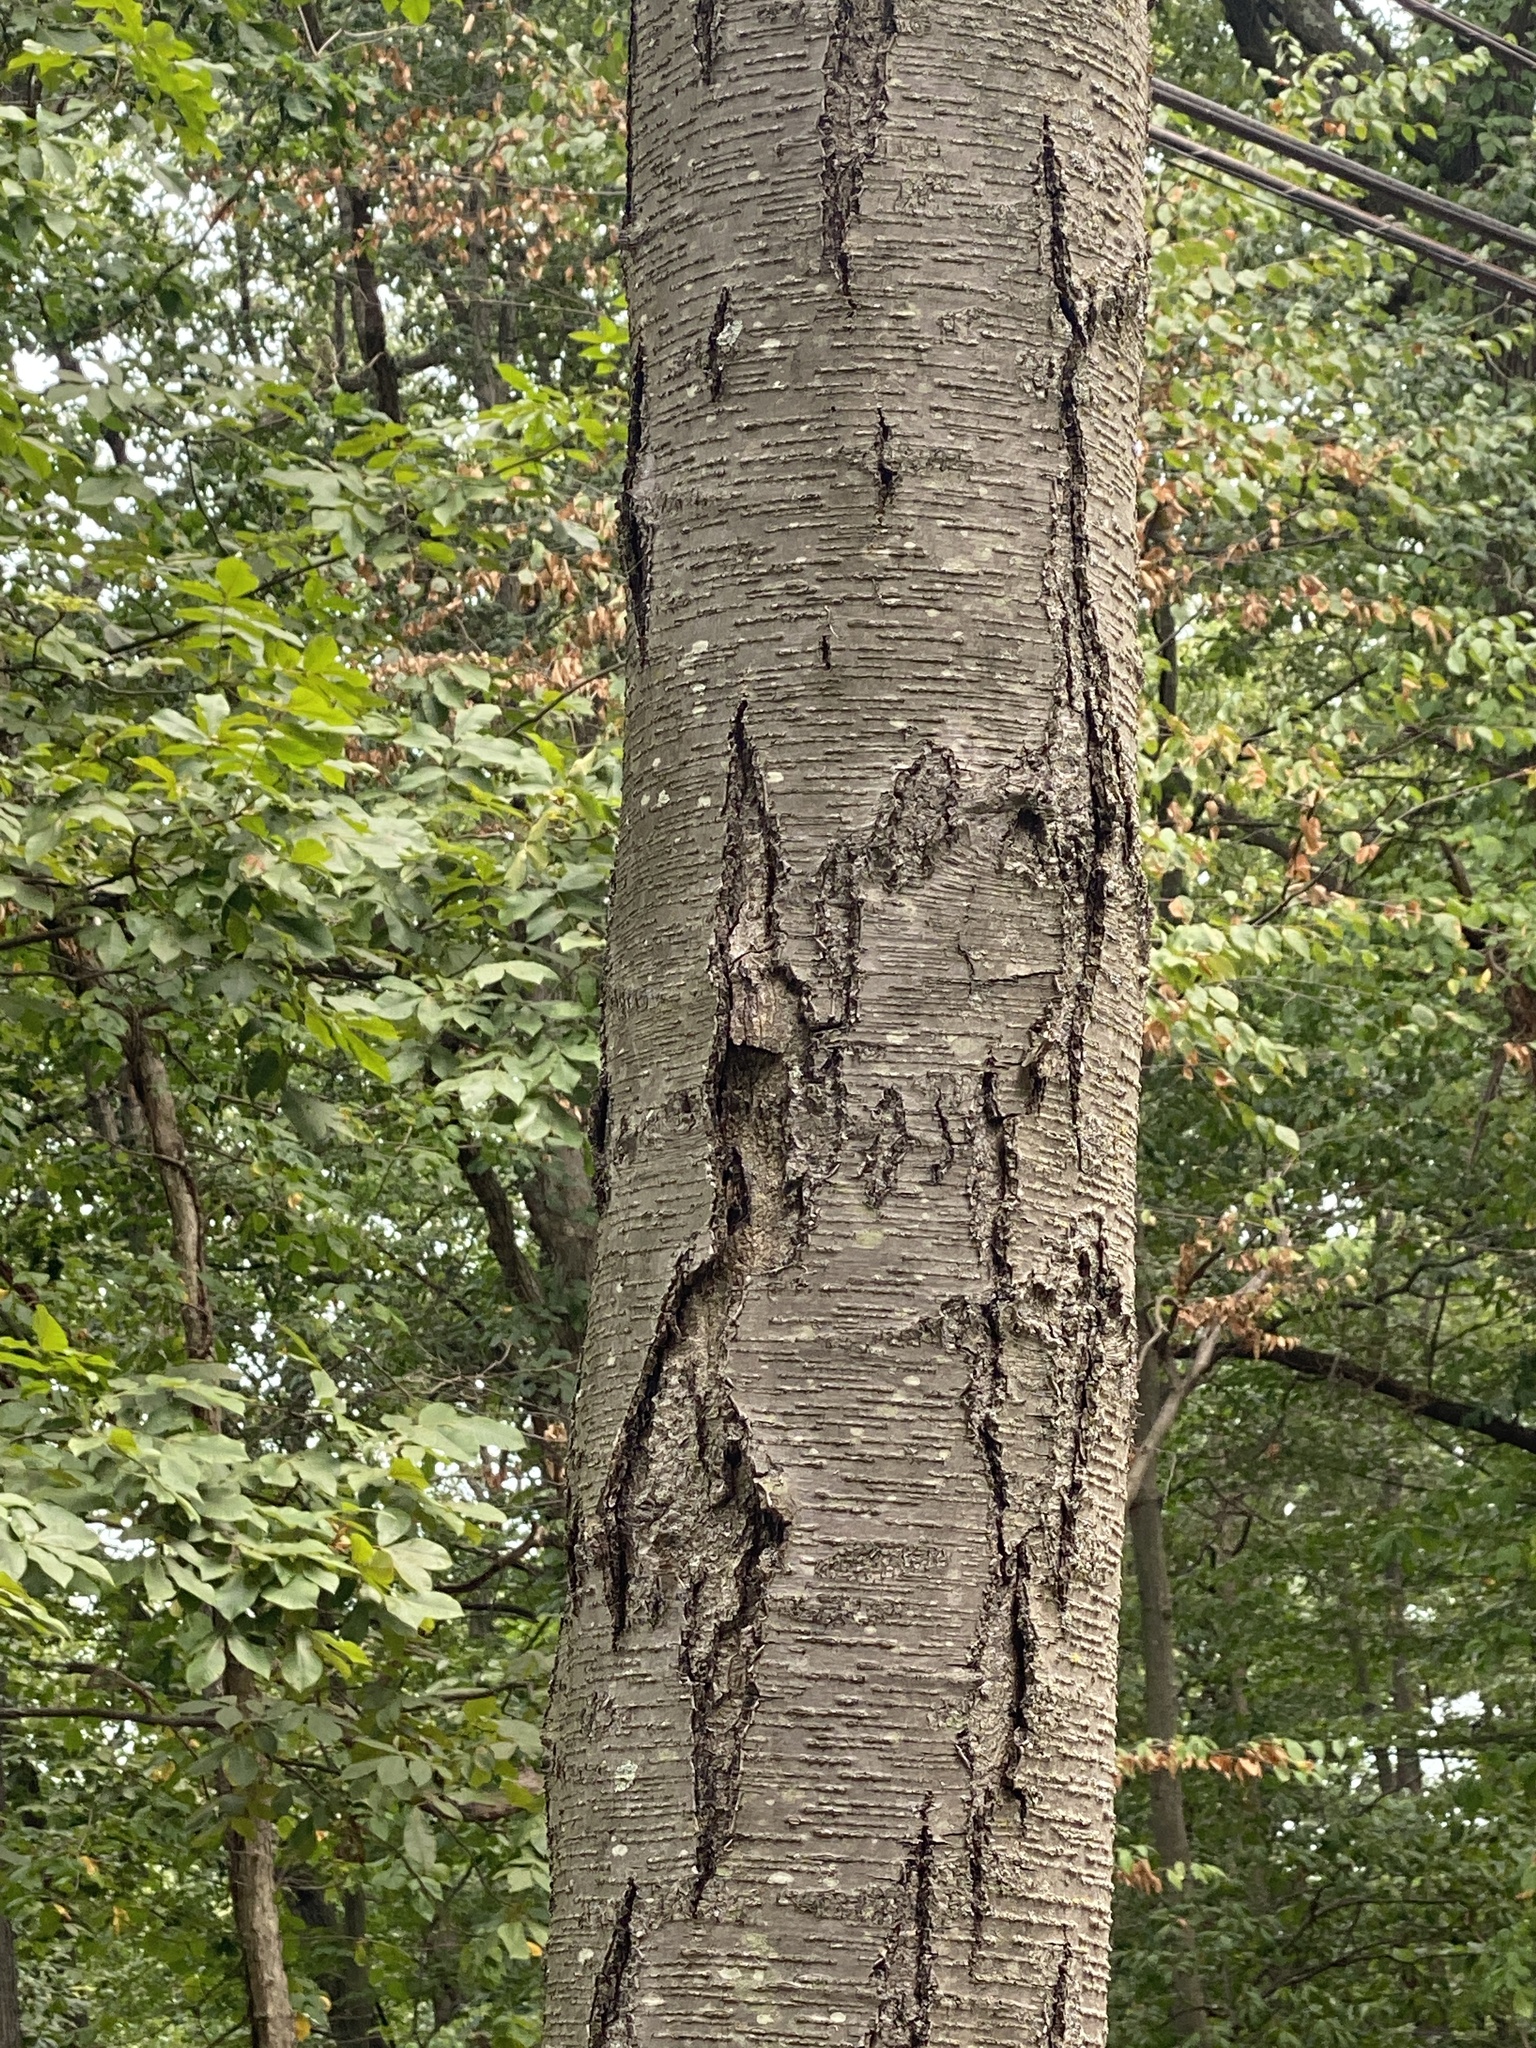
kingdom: Plantae
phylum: Tracheophyta
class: Magnoliopsida
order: Fagales
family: Betulaceae
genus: Betula
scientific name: Betula lenta
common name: Black birch
